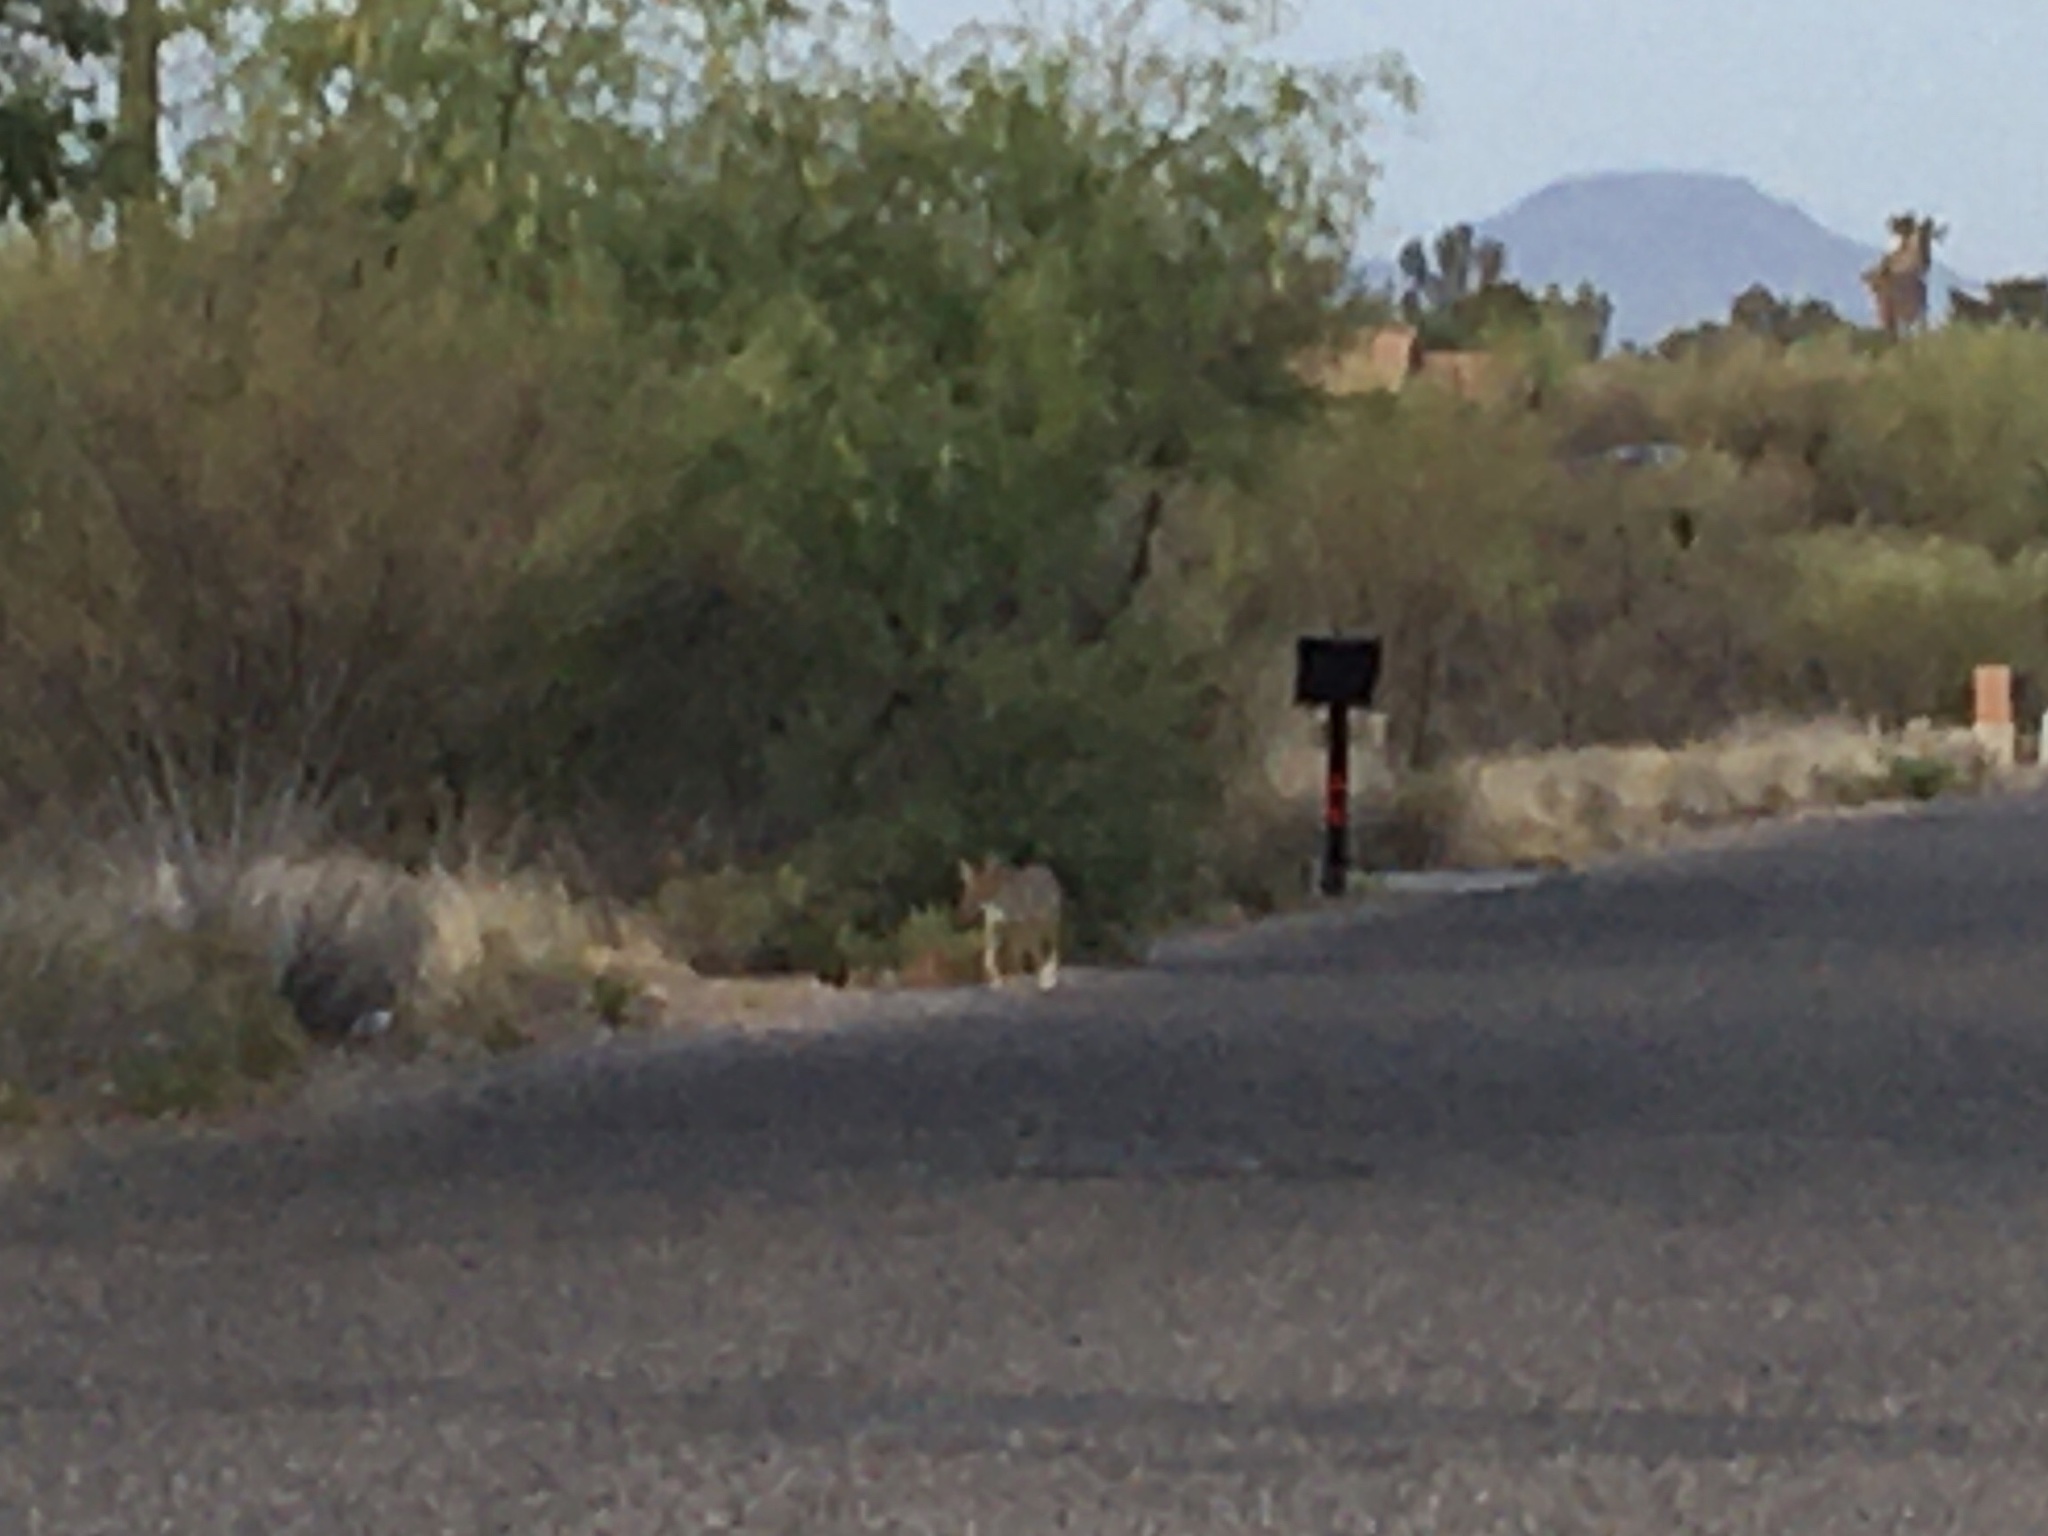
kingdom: Animalia
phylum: Chordata
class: Mammalia
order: Carnivora
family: Canidae
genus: Canis
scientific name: Canis latrans
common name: Coyote
